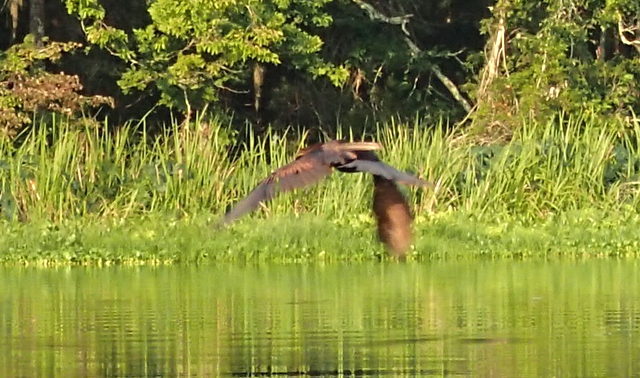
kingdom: Animalia
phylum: Chordata
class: Aves
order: Suliformes
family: Anhingidae
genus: Anhinga
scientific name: Anhinga anhinga
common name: Anhinga
